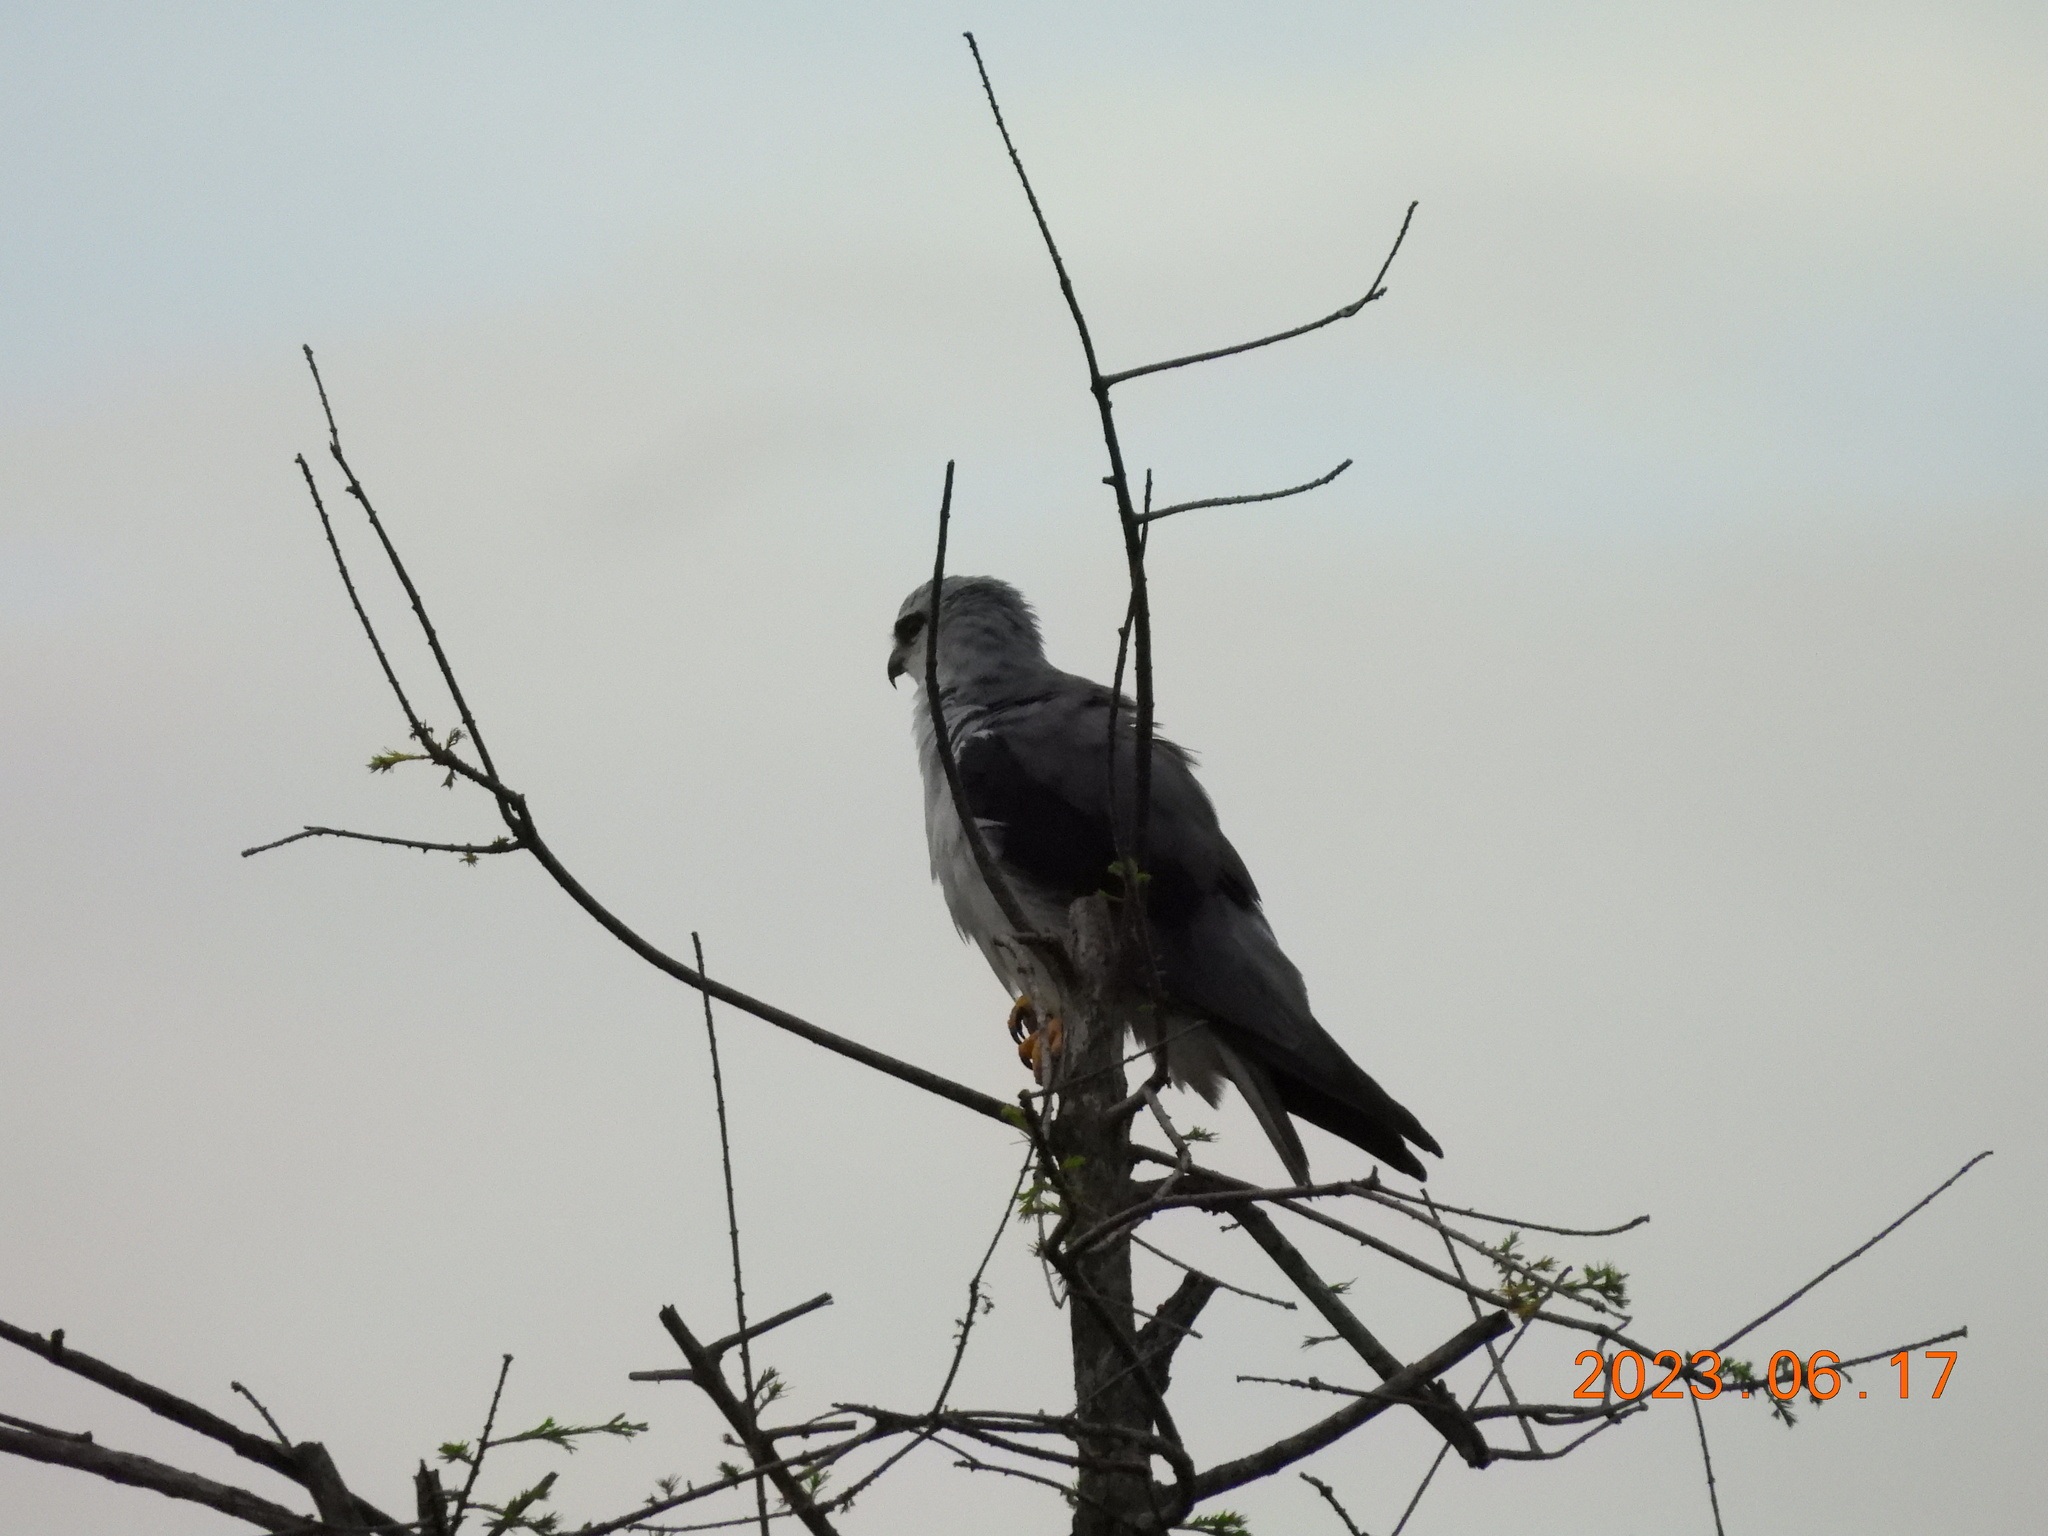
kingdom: Animalia
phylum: Chordata
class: Aves
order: Accipitriformes
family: Accipitridae
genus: Elanus
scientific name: Elanus caeruleus
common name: Black-winged kite
